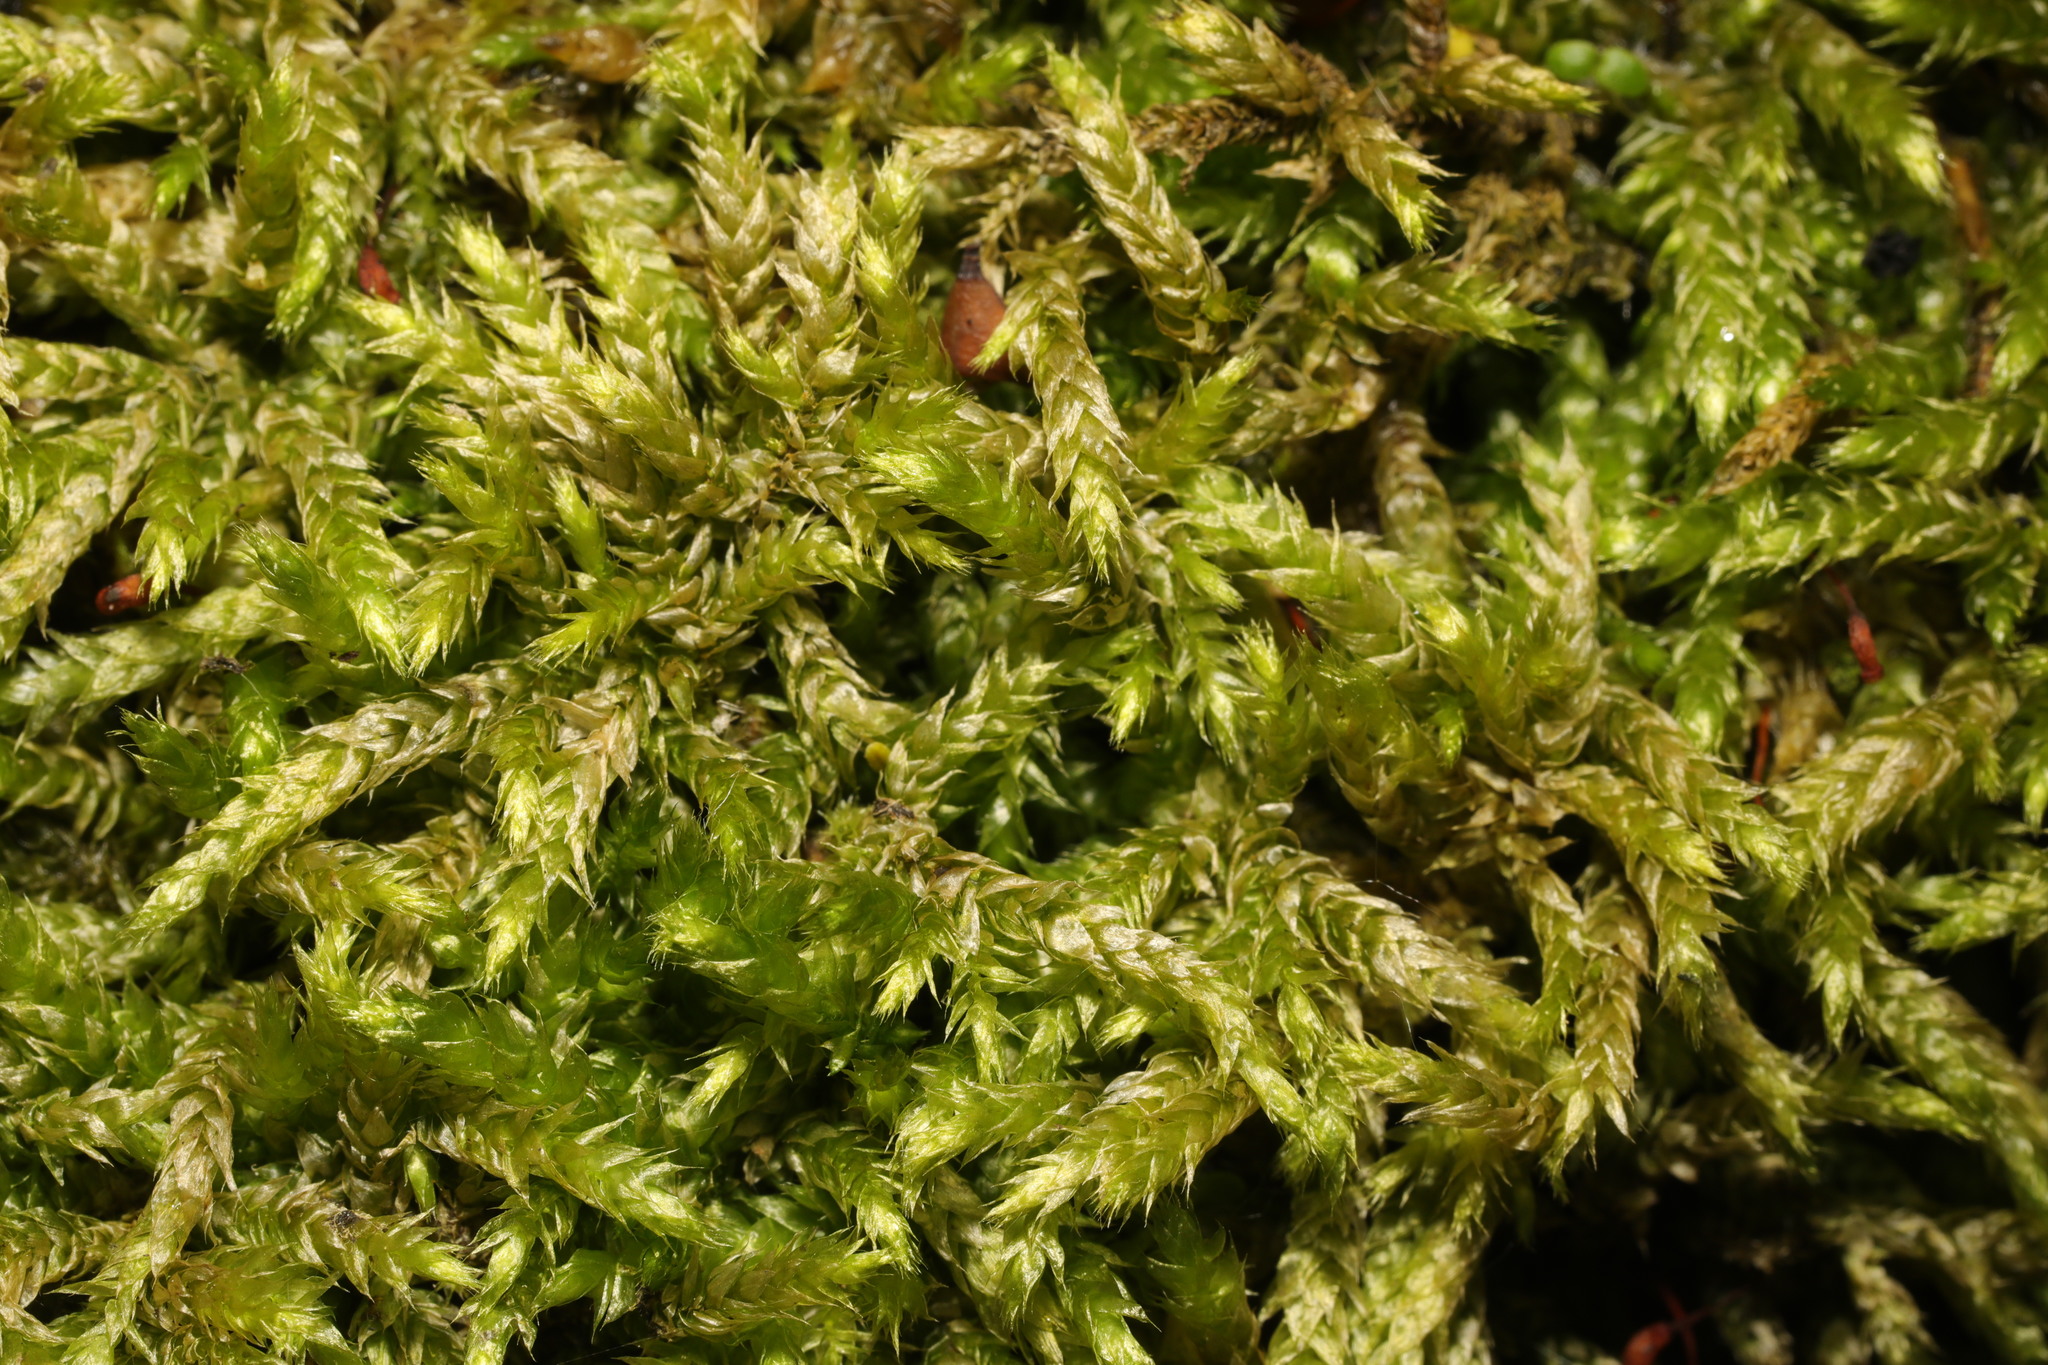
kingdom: Plantae
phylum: Bryophyta
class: Bryopsida
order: Hypnales
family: Brachytheciaceae
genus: Brachythecium
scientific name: Brachythecium rutabulum
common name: Rough-stalked feather-moss
